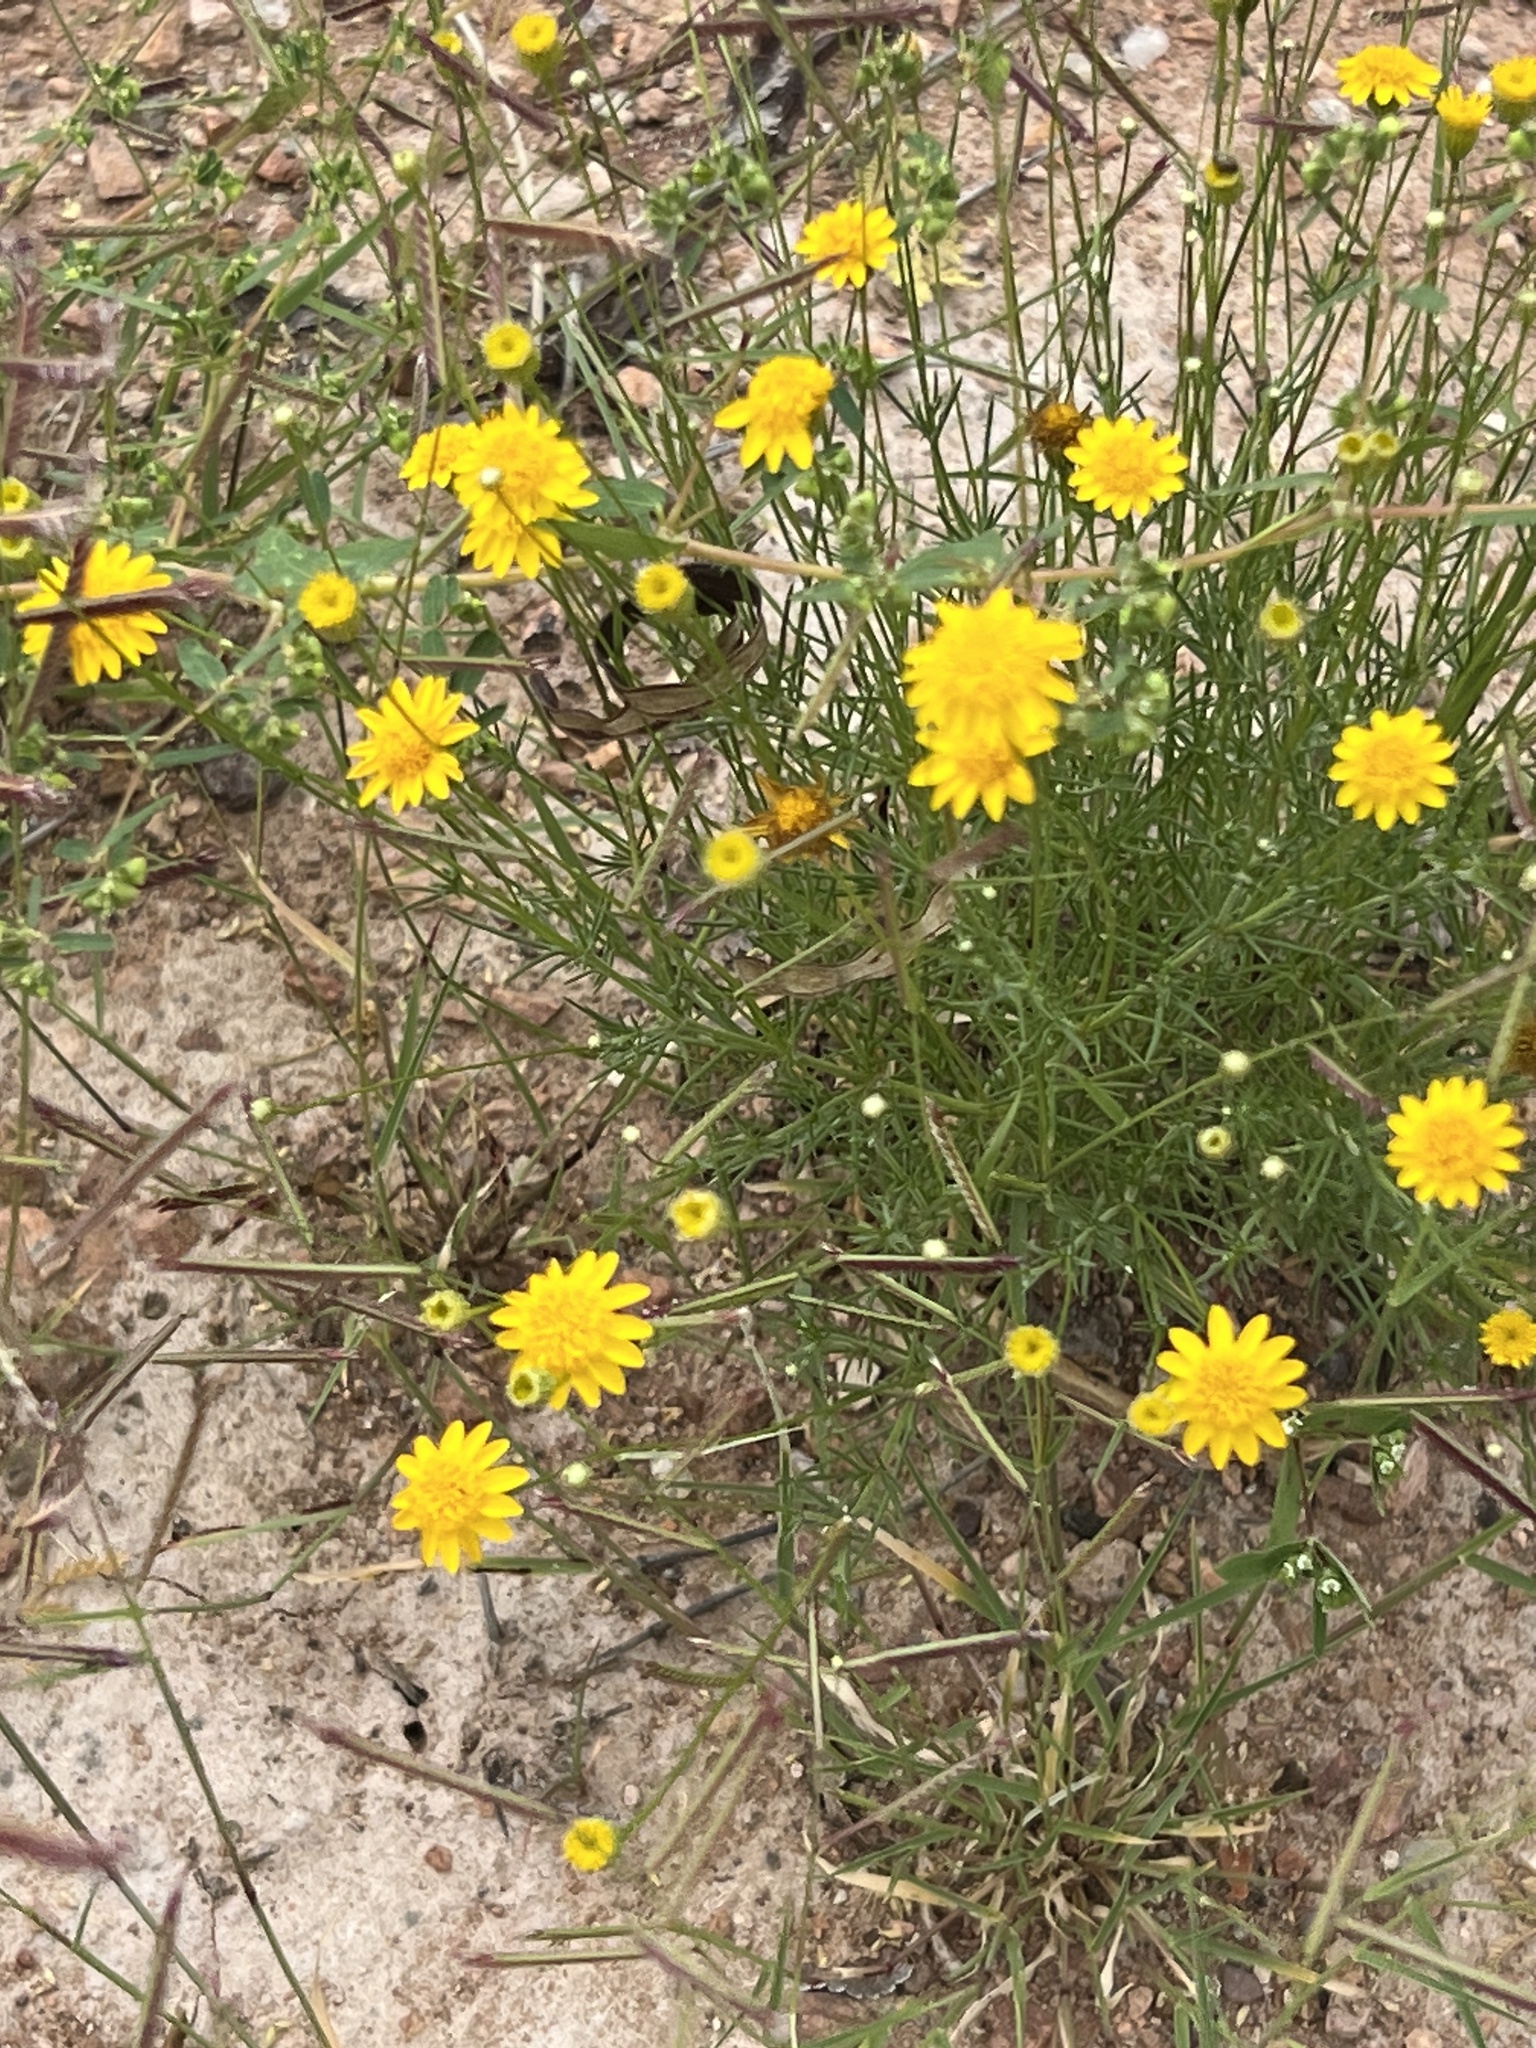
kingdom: Plantae
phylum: Tracheophyta
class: Magnoliopsida
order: Asterales
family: Asteraceae
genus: Thymophylla
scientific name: Thymophylla pentachaeta
